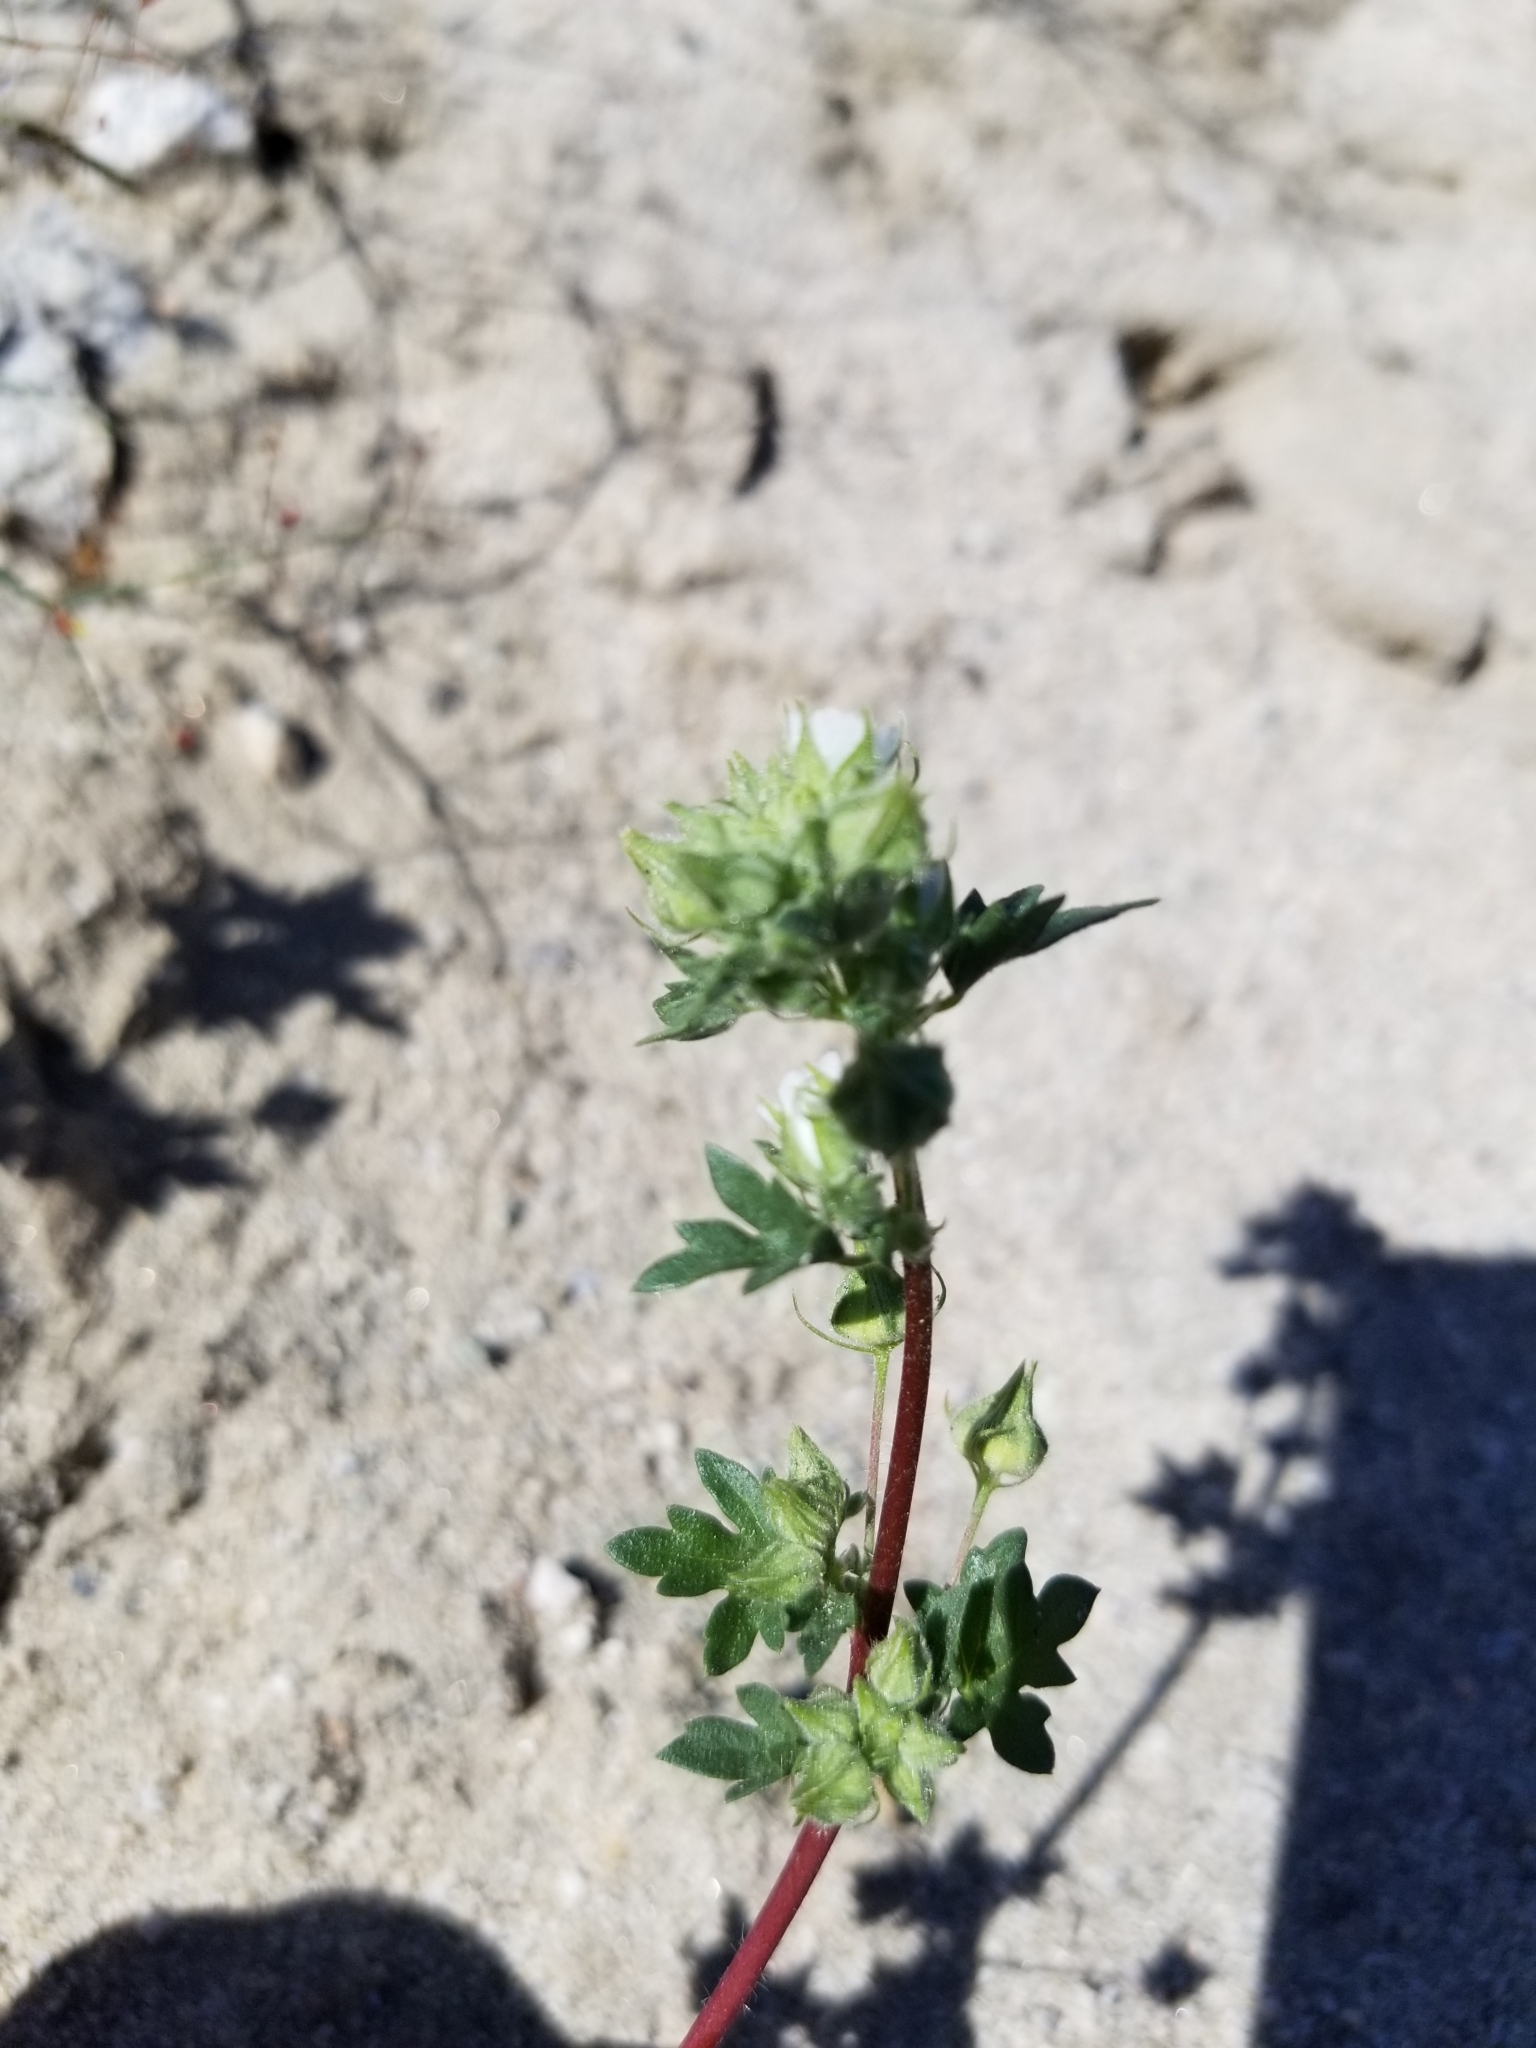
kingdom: Plantae
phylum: Tracheophyta
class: Magnoliopsida
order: Malvales
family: Malvaceae
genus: Eremalche
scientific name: Eremalche exilis
